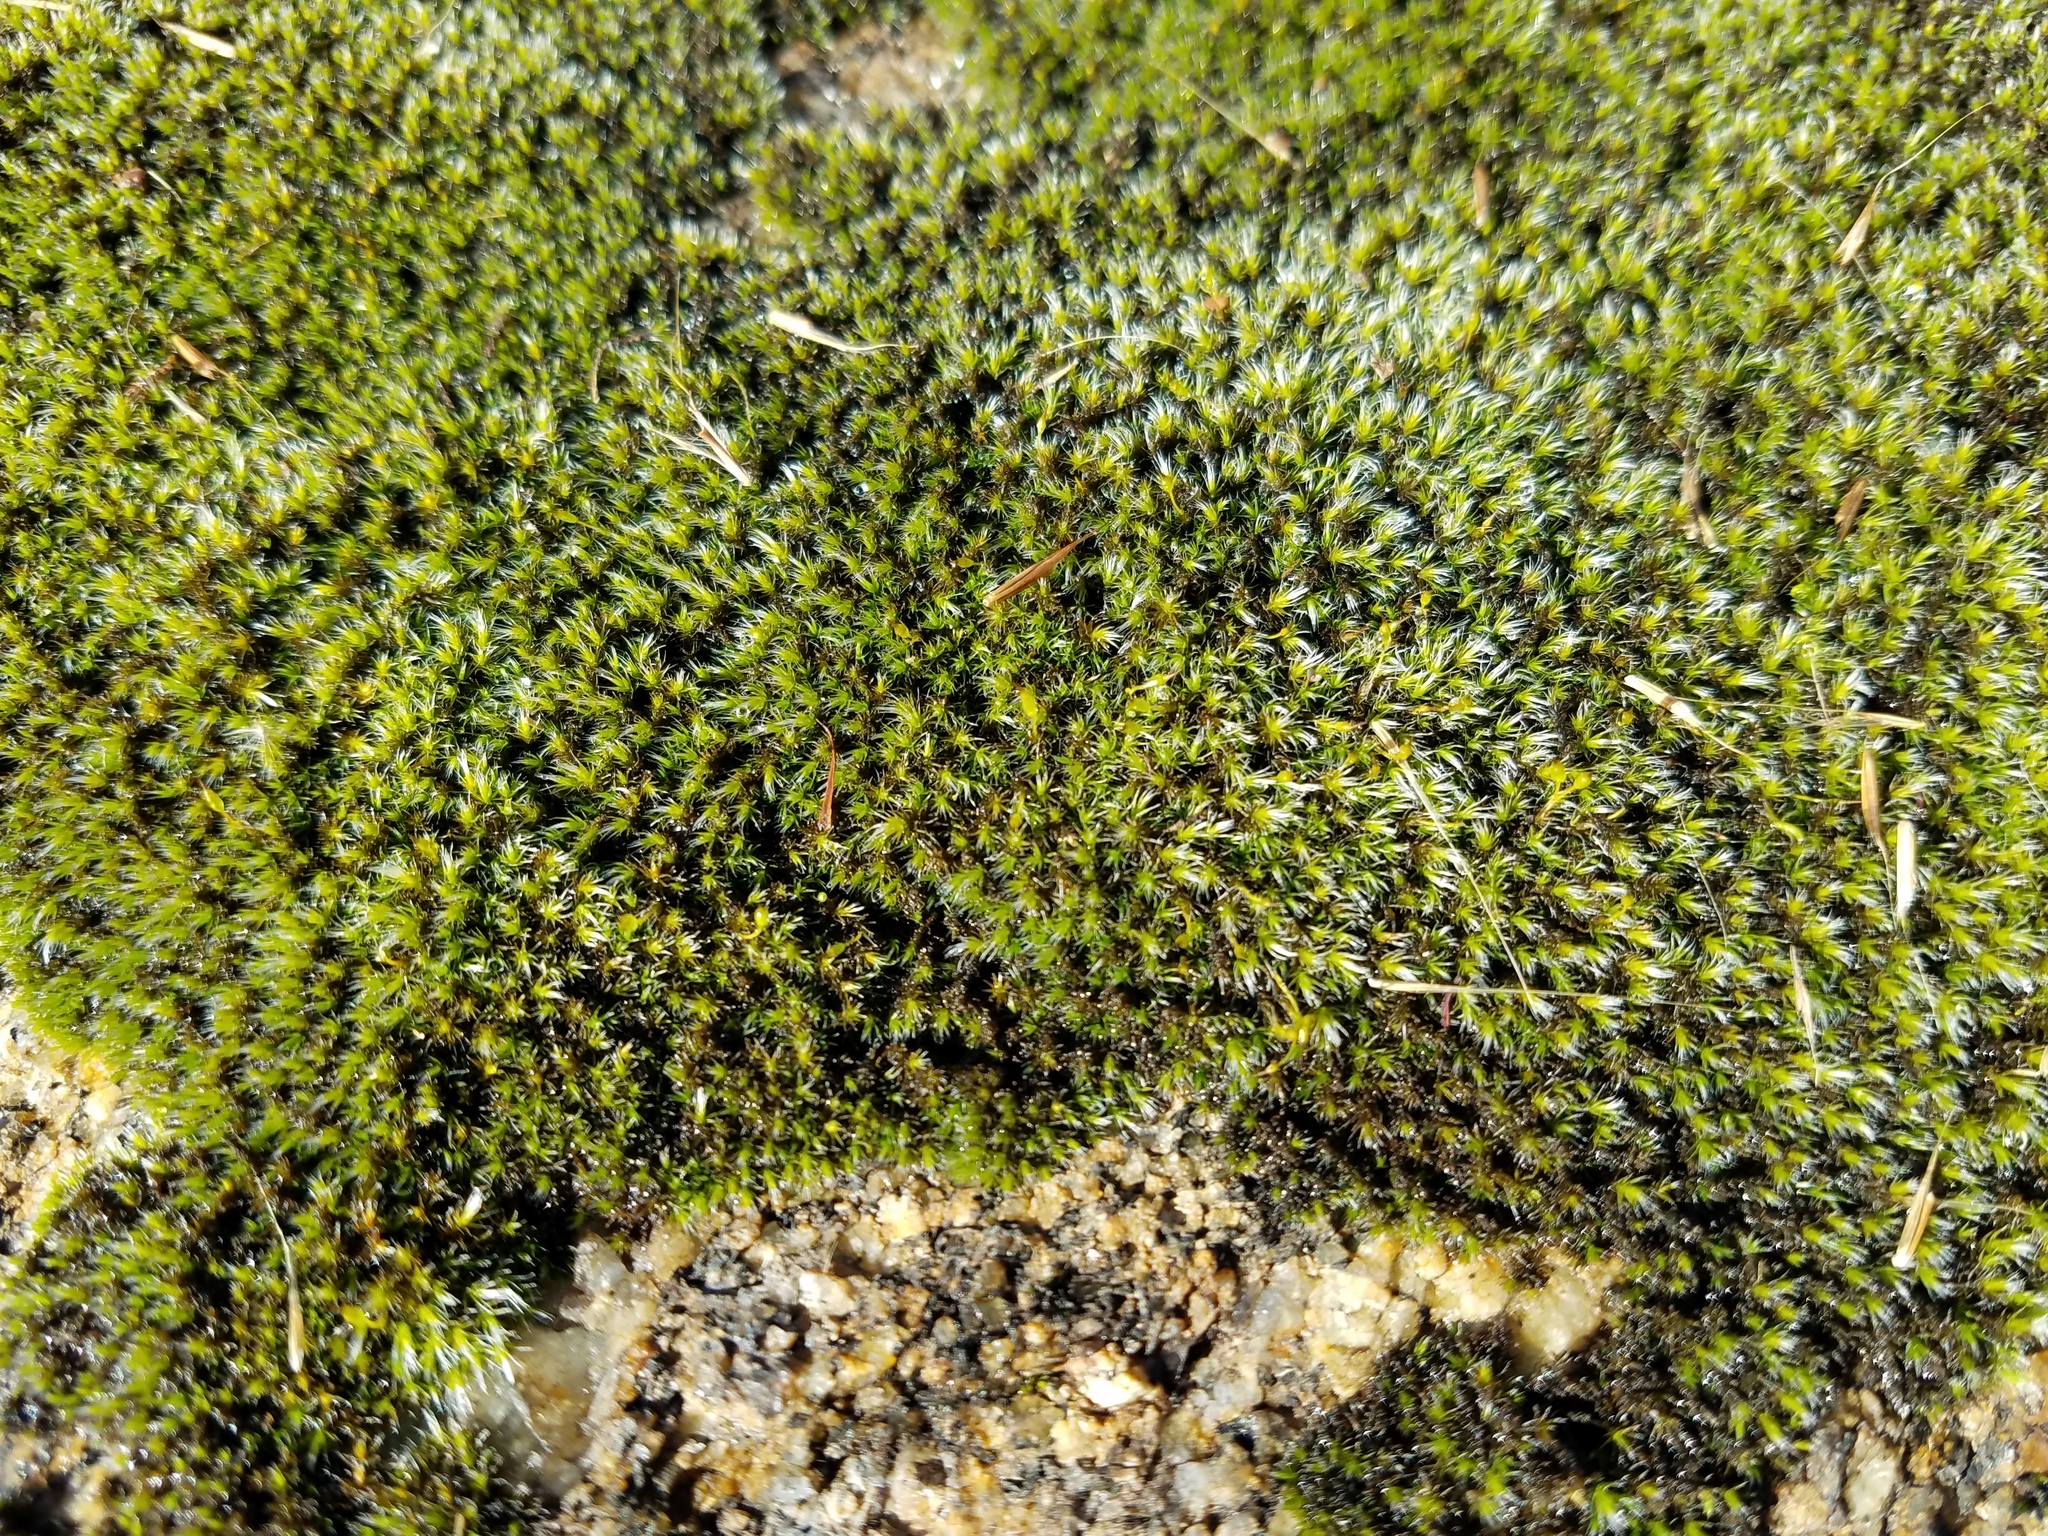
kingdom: Plantae
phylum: Bryophyta
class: Bryopsida
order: Grimmiales
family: Grimmiaceae
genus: Grimmia
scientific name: Grimmia laevigata
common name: Hoary grimmia
